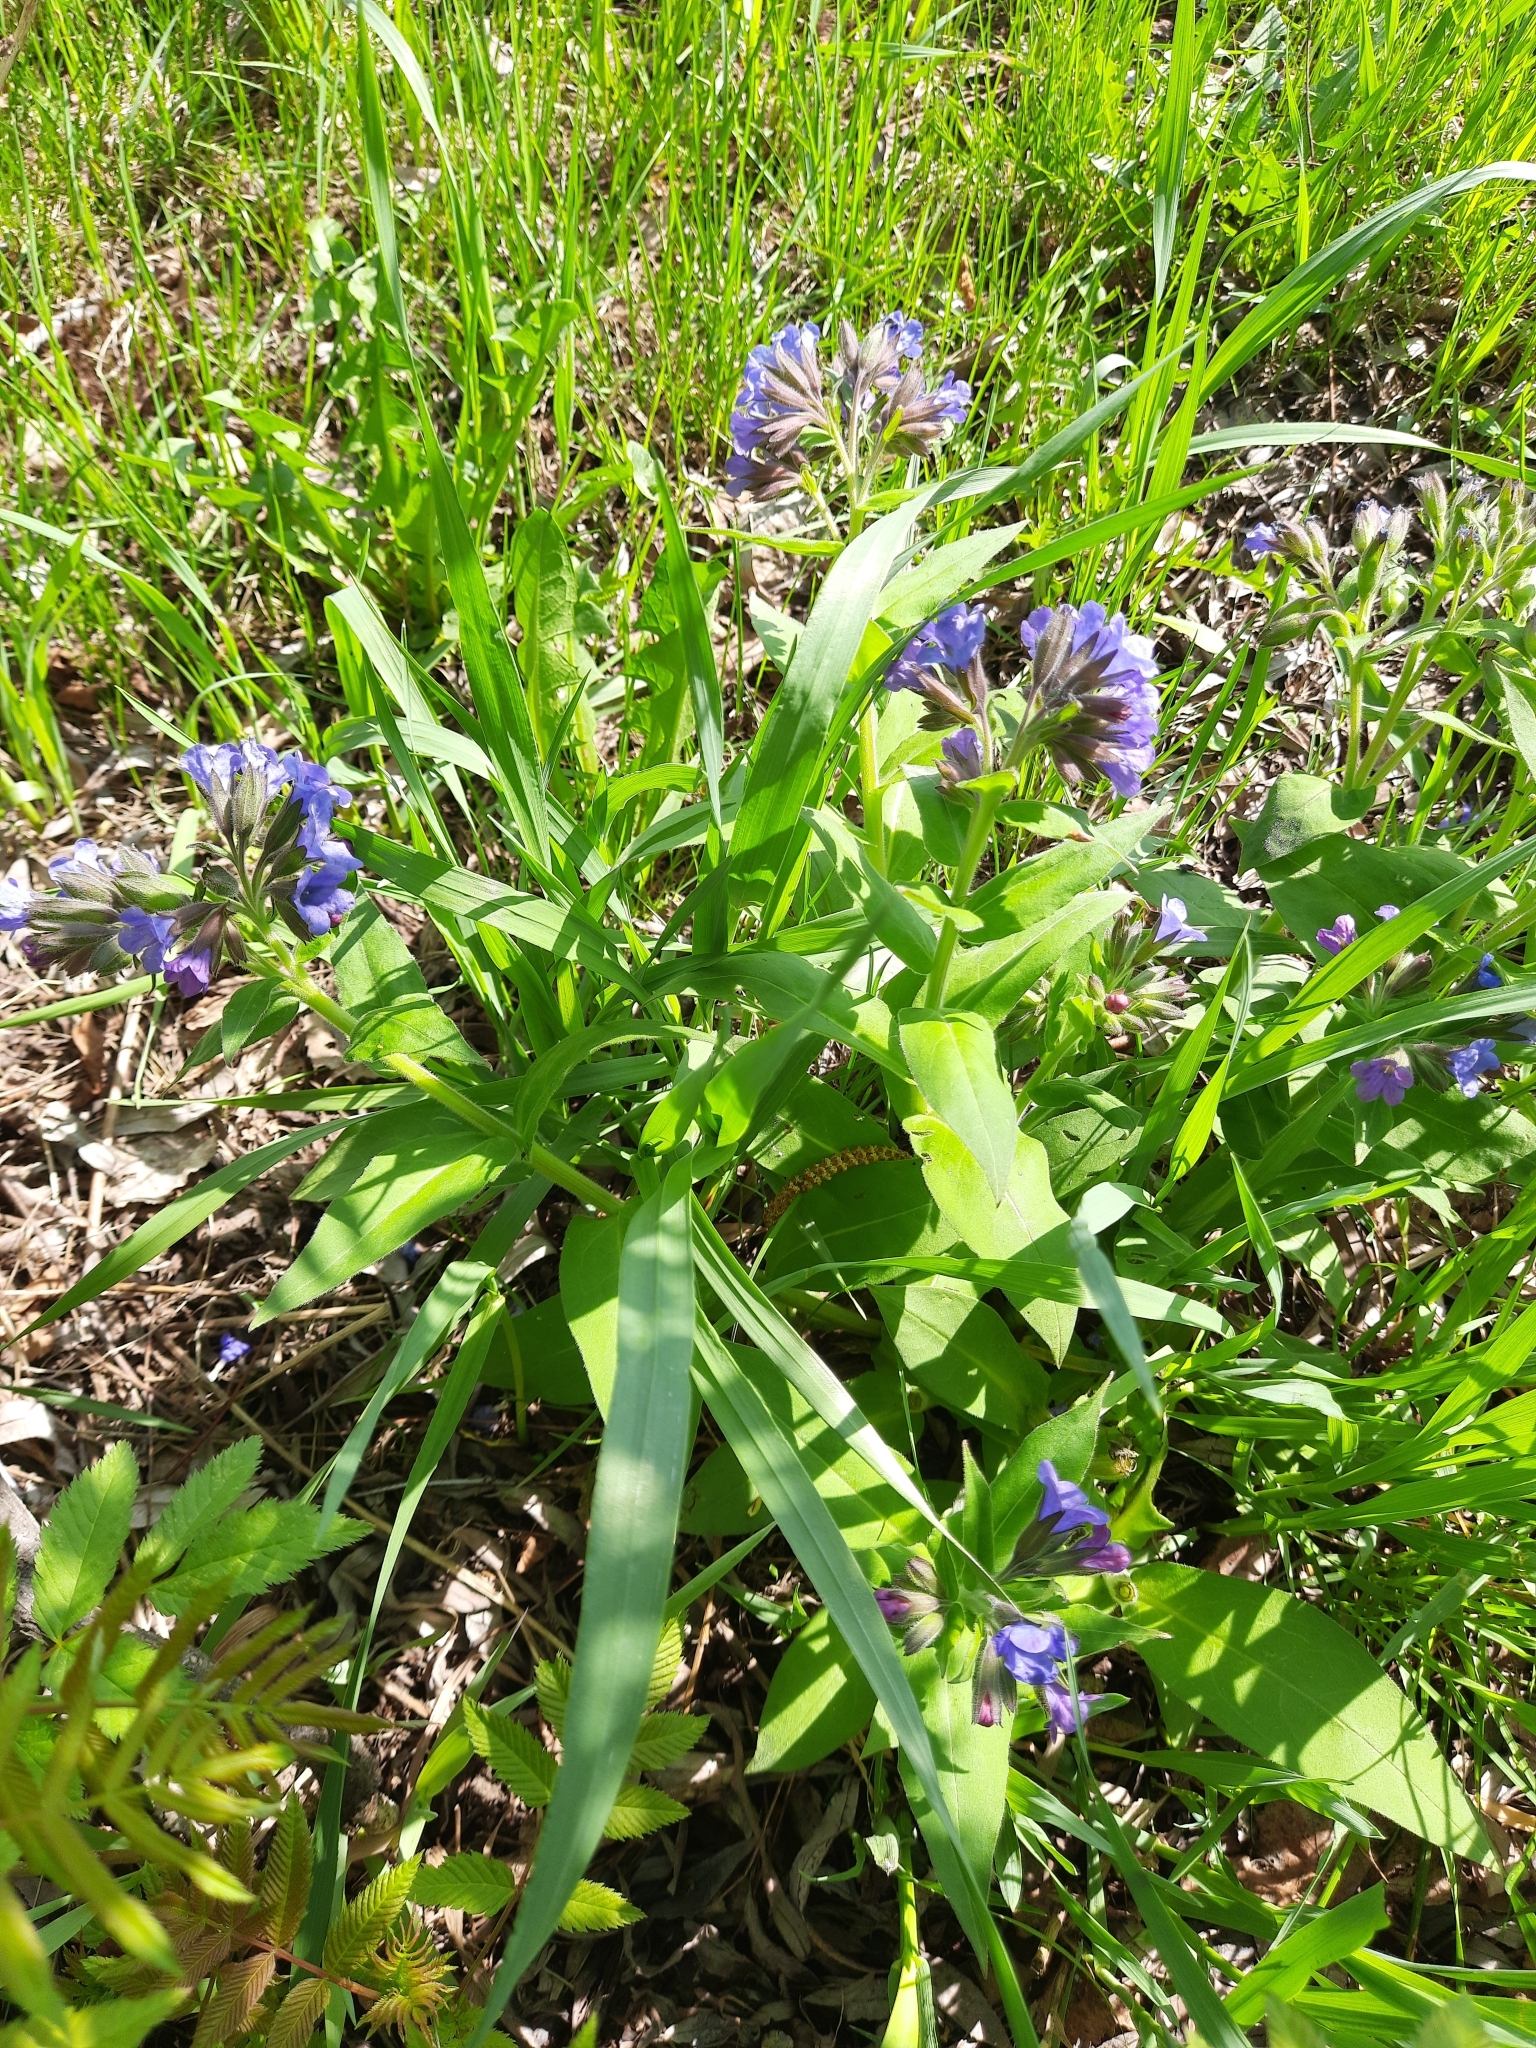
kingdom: Plantae
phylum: Tracheophyta
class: Magnoliopsida
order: Boraginales
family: Boraginaceae
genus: Pulmonaria
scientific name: Pulmonaria mollis
